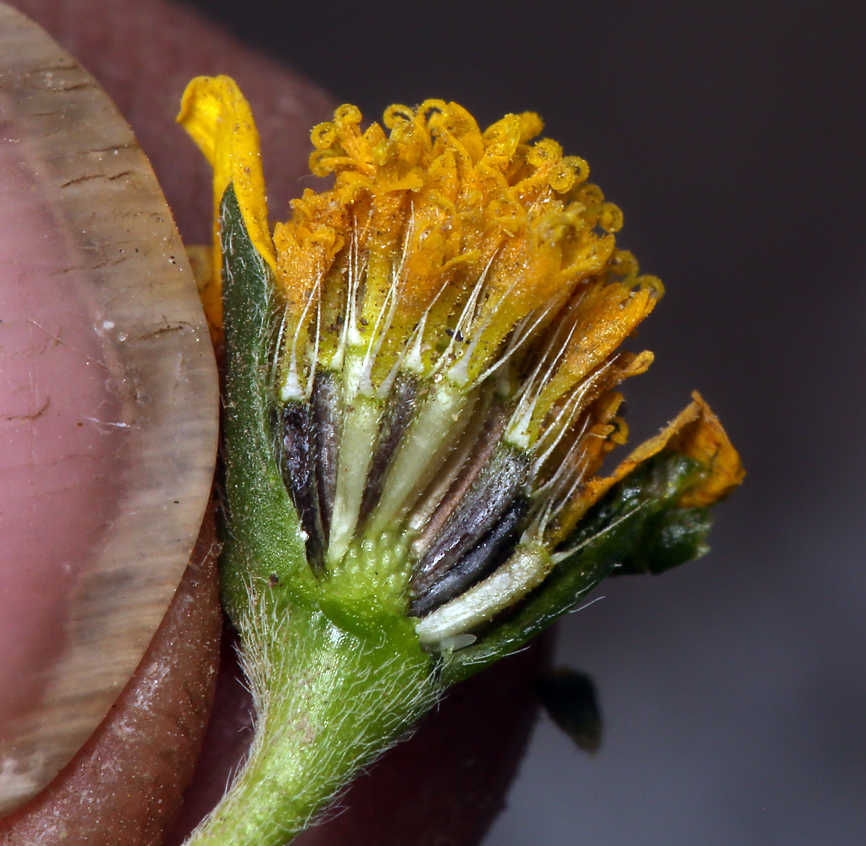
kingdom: Plantae
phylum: Tracheophyta
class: Magnoliopsida
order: Asterales
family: Asteraceae
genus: Lasthenia
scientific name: Lasthenia gracilis
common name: Common goldfields
